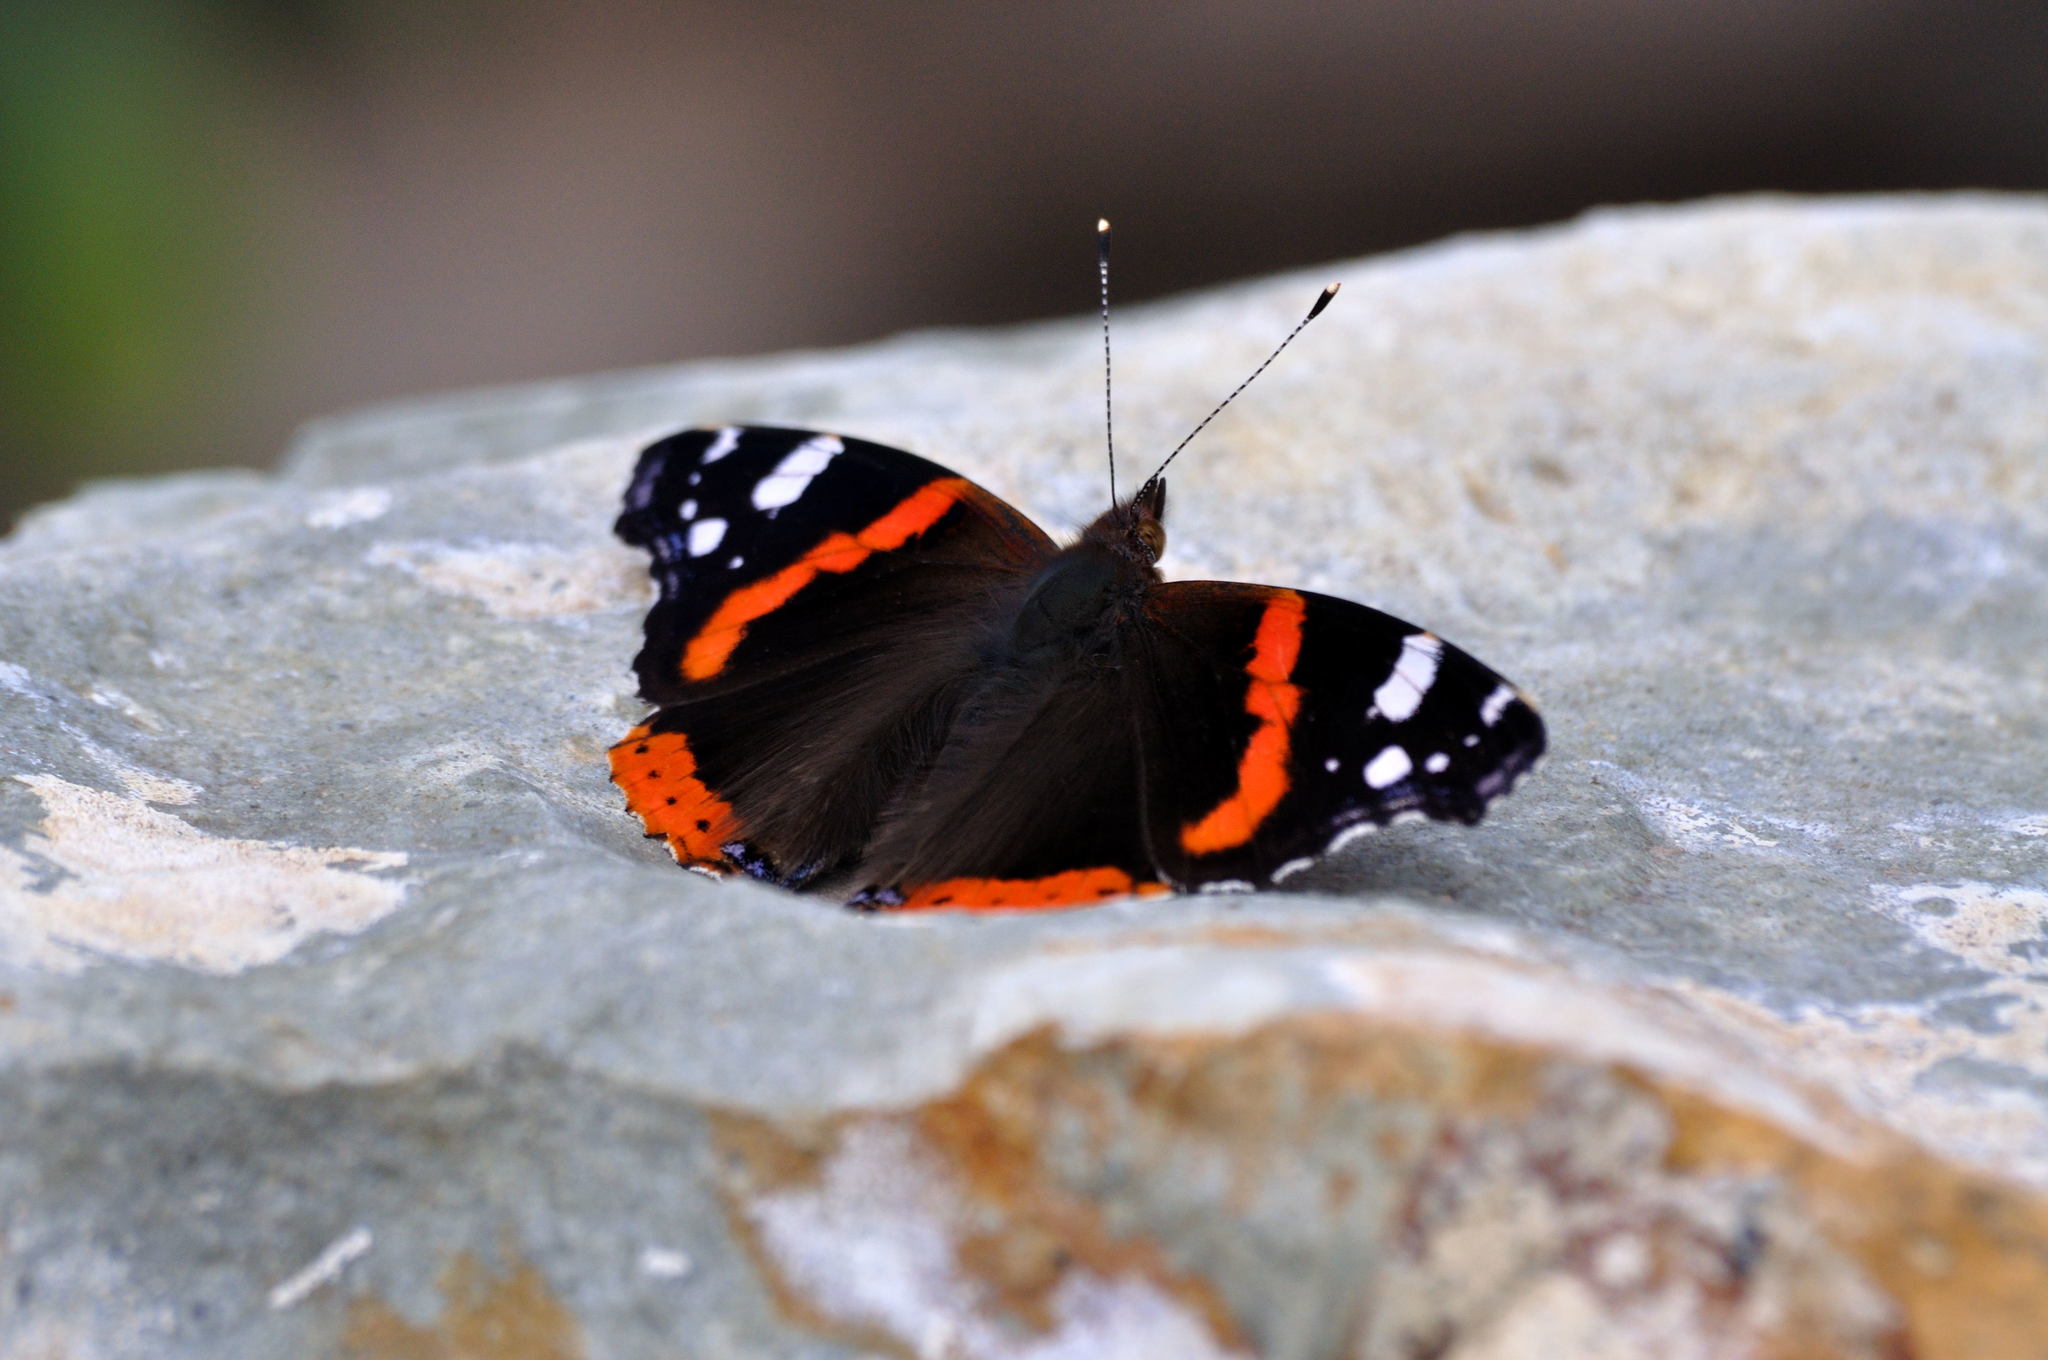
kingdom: Animalia
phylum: Arthropoda
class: Insecta
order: Lepidoptera
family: Nymphalidae
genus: Vanessa
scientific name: Vanessa atalanta
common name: Red admiral
